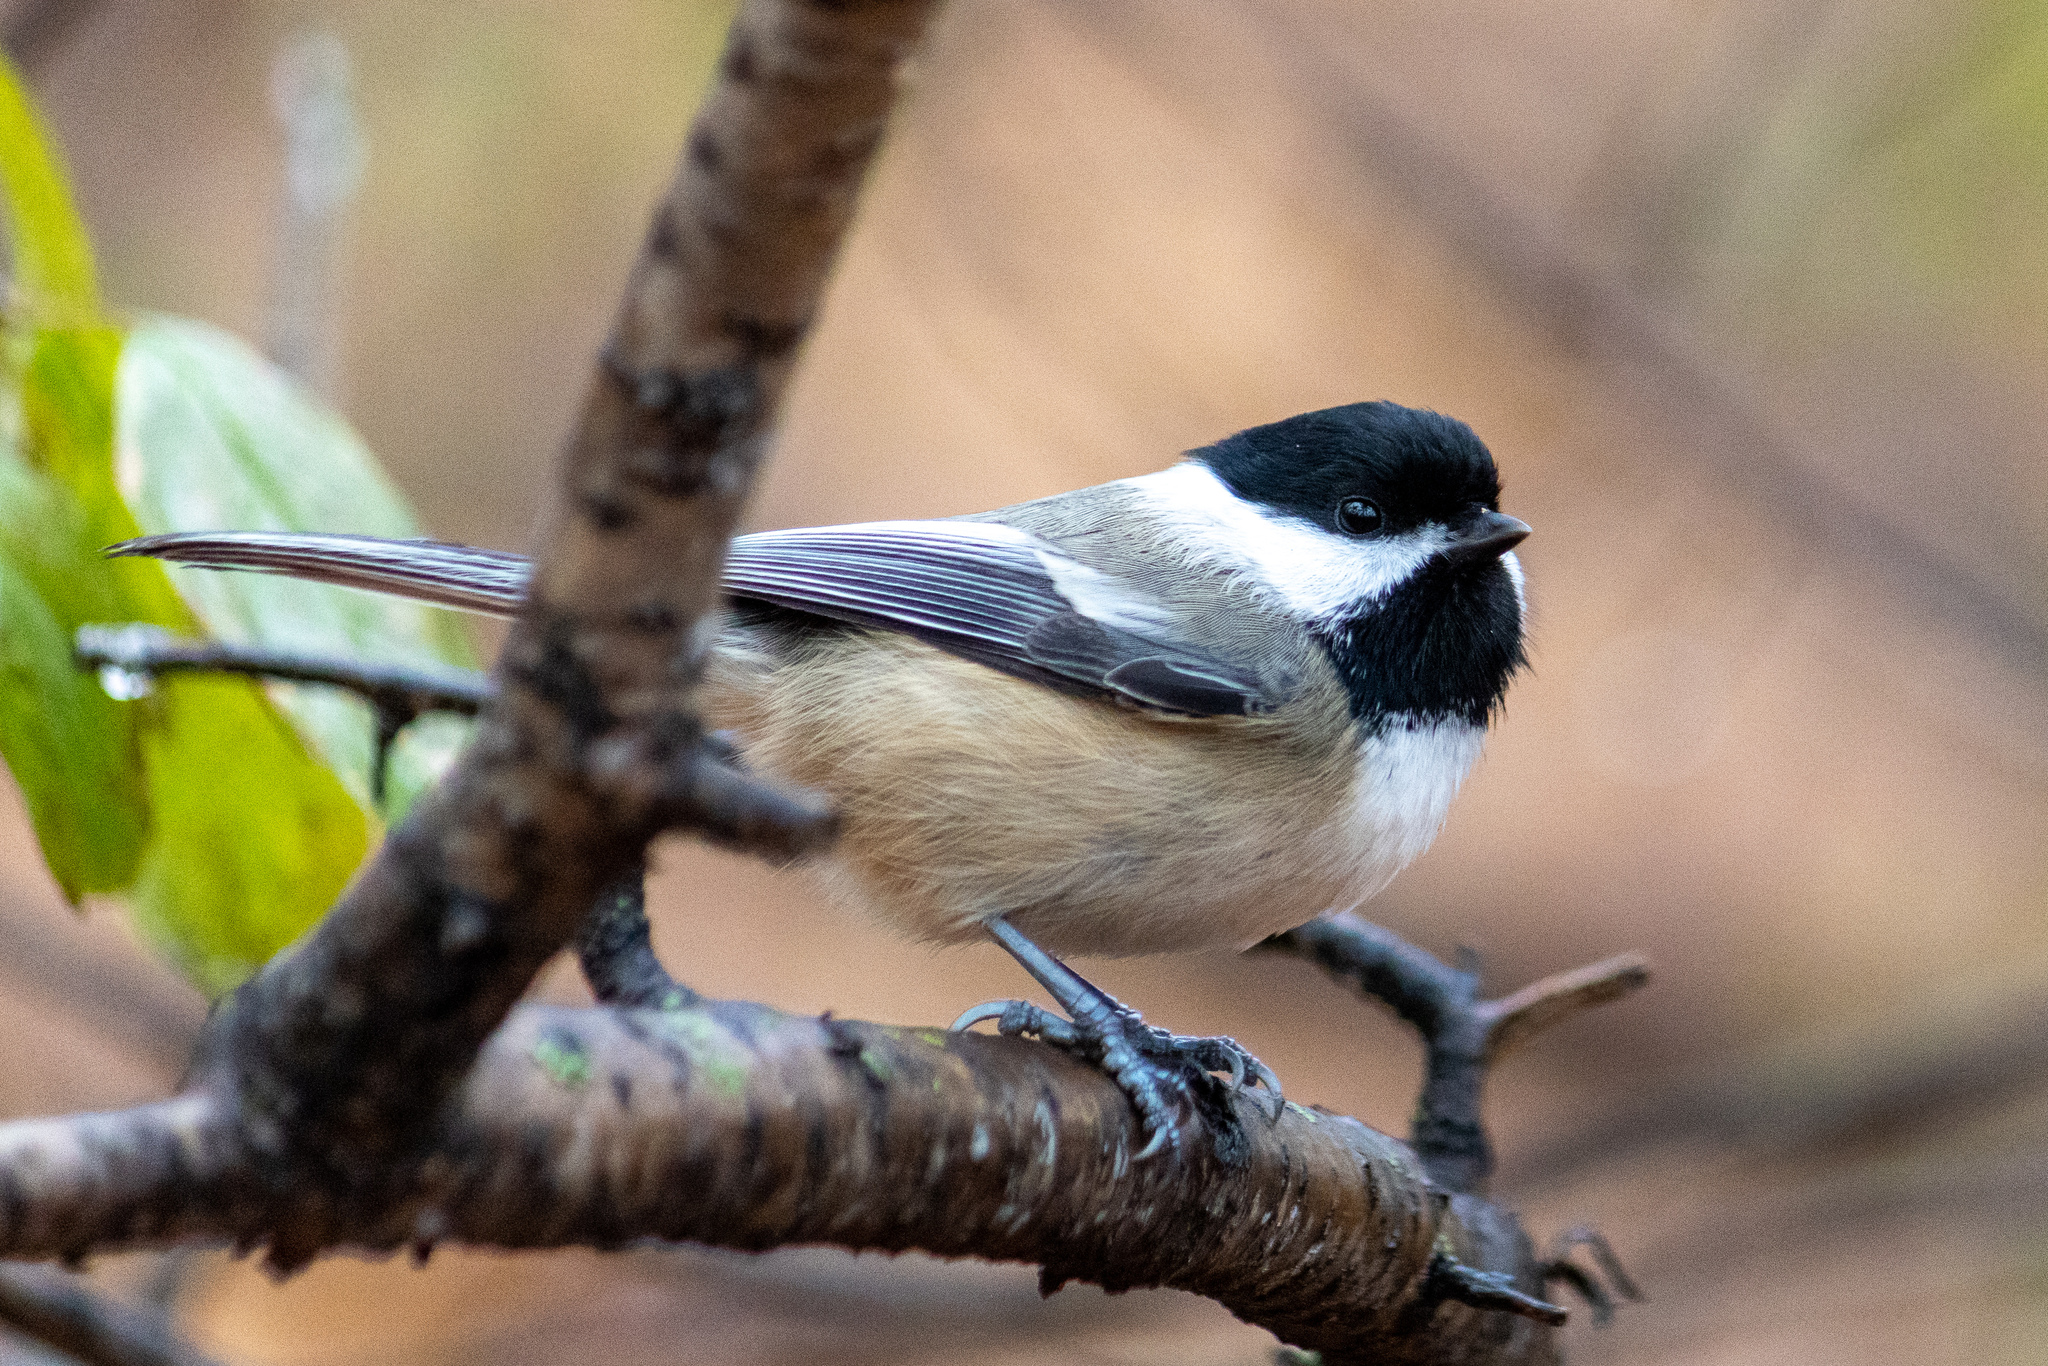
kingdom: Animalia
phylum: Chordata
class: Aves
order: Passeriformes
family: Paridae
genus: Poecile
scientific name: Poecile atricapillus
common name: Black-capped chickadee
